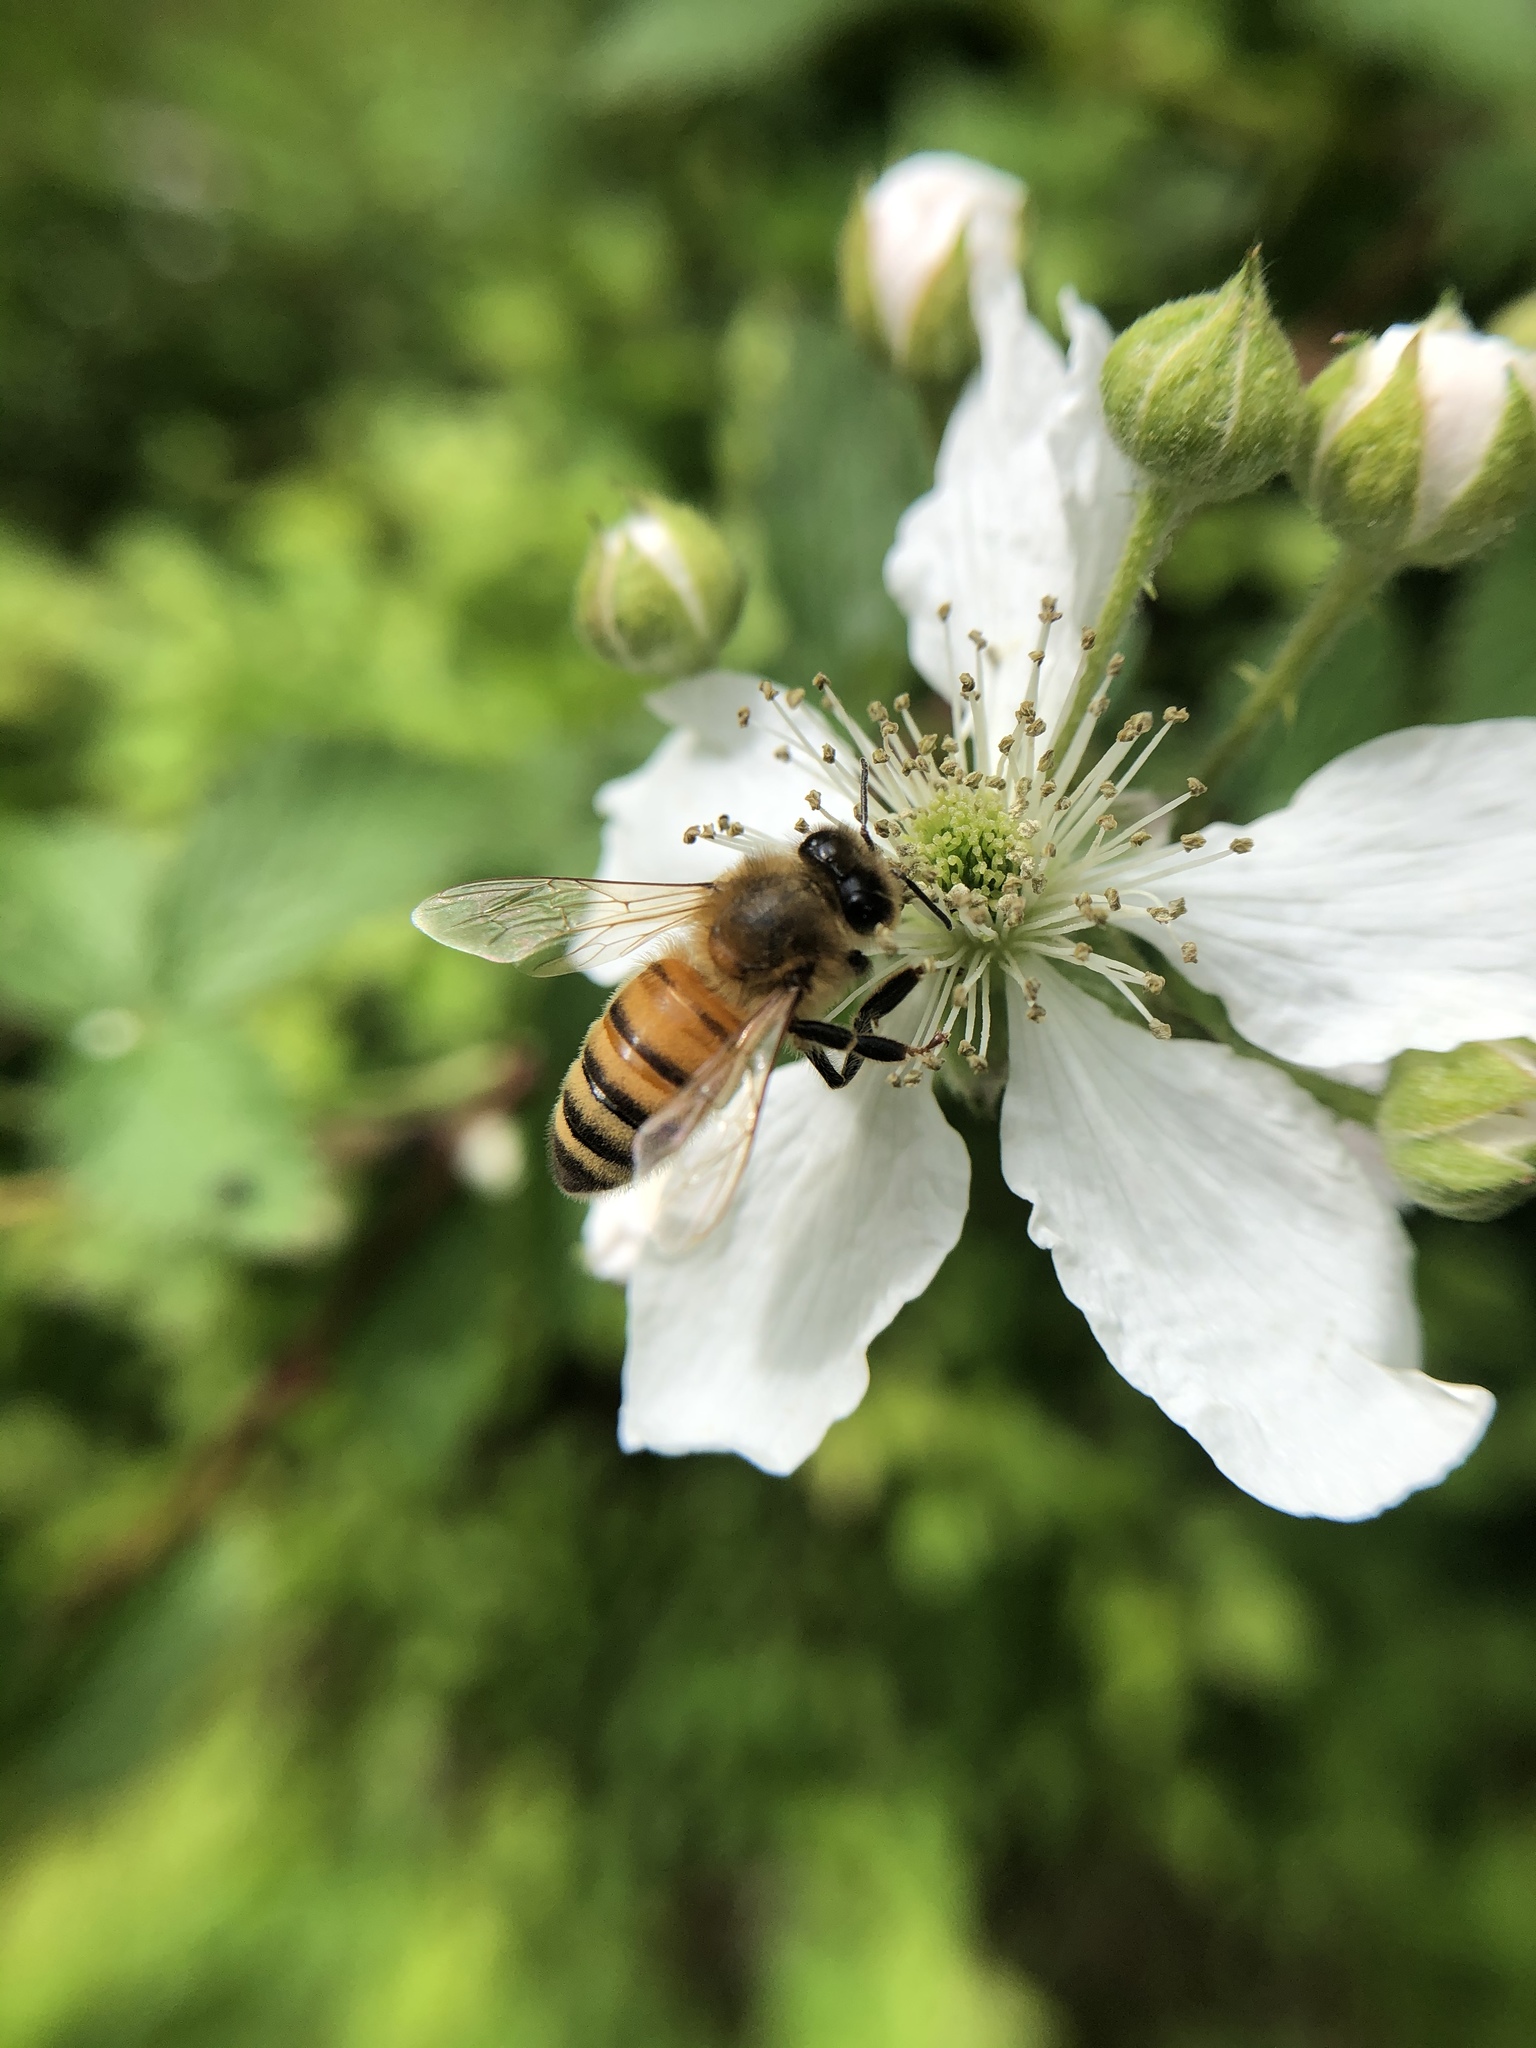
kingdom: Animalia
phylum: Arthropoda
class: Insecta
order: Hymenoptera
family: Apidae
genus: Apis
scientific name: Apis mellifera
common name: Honey bee
